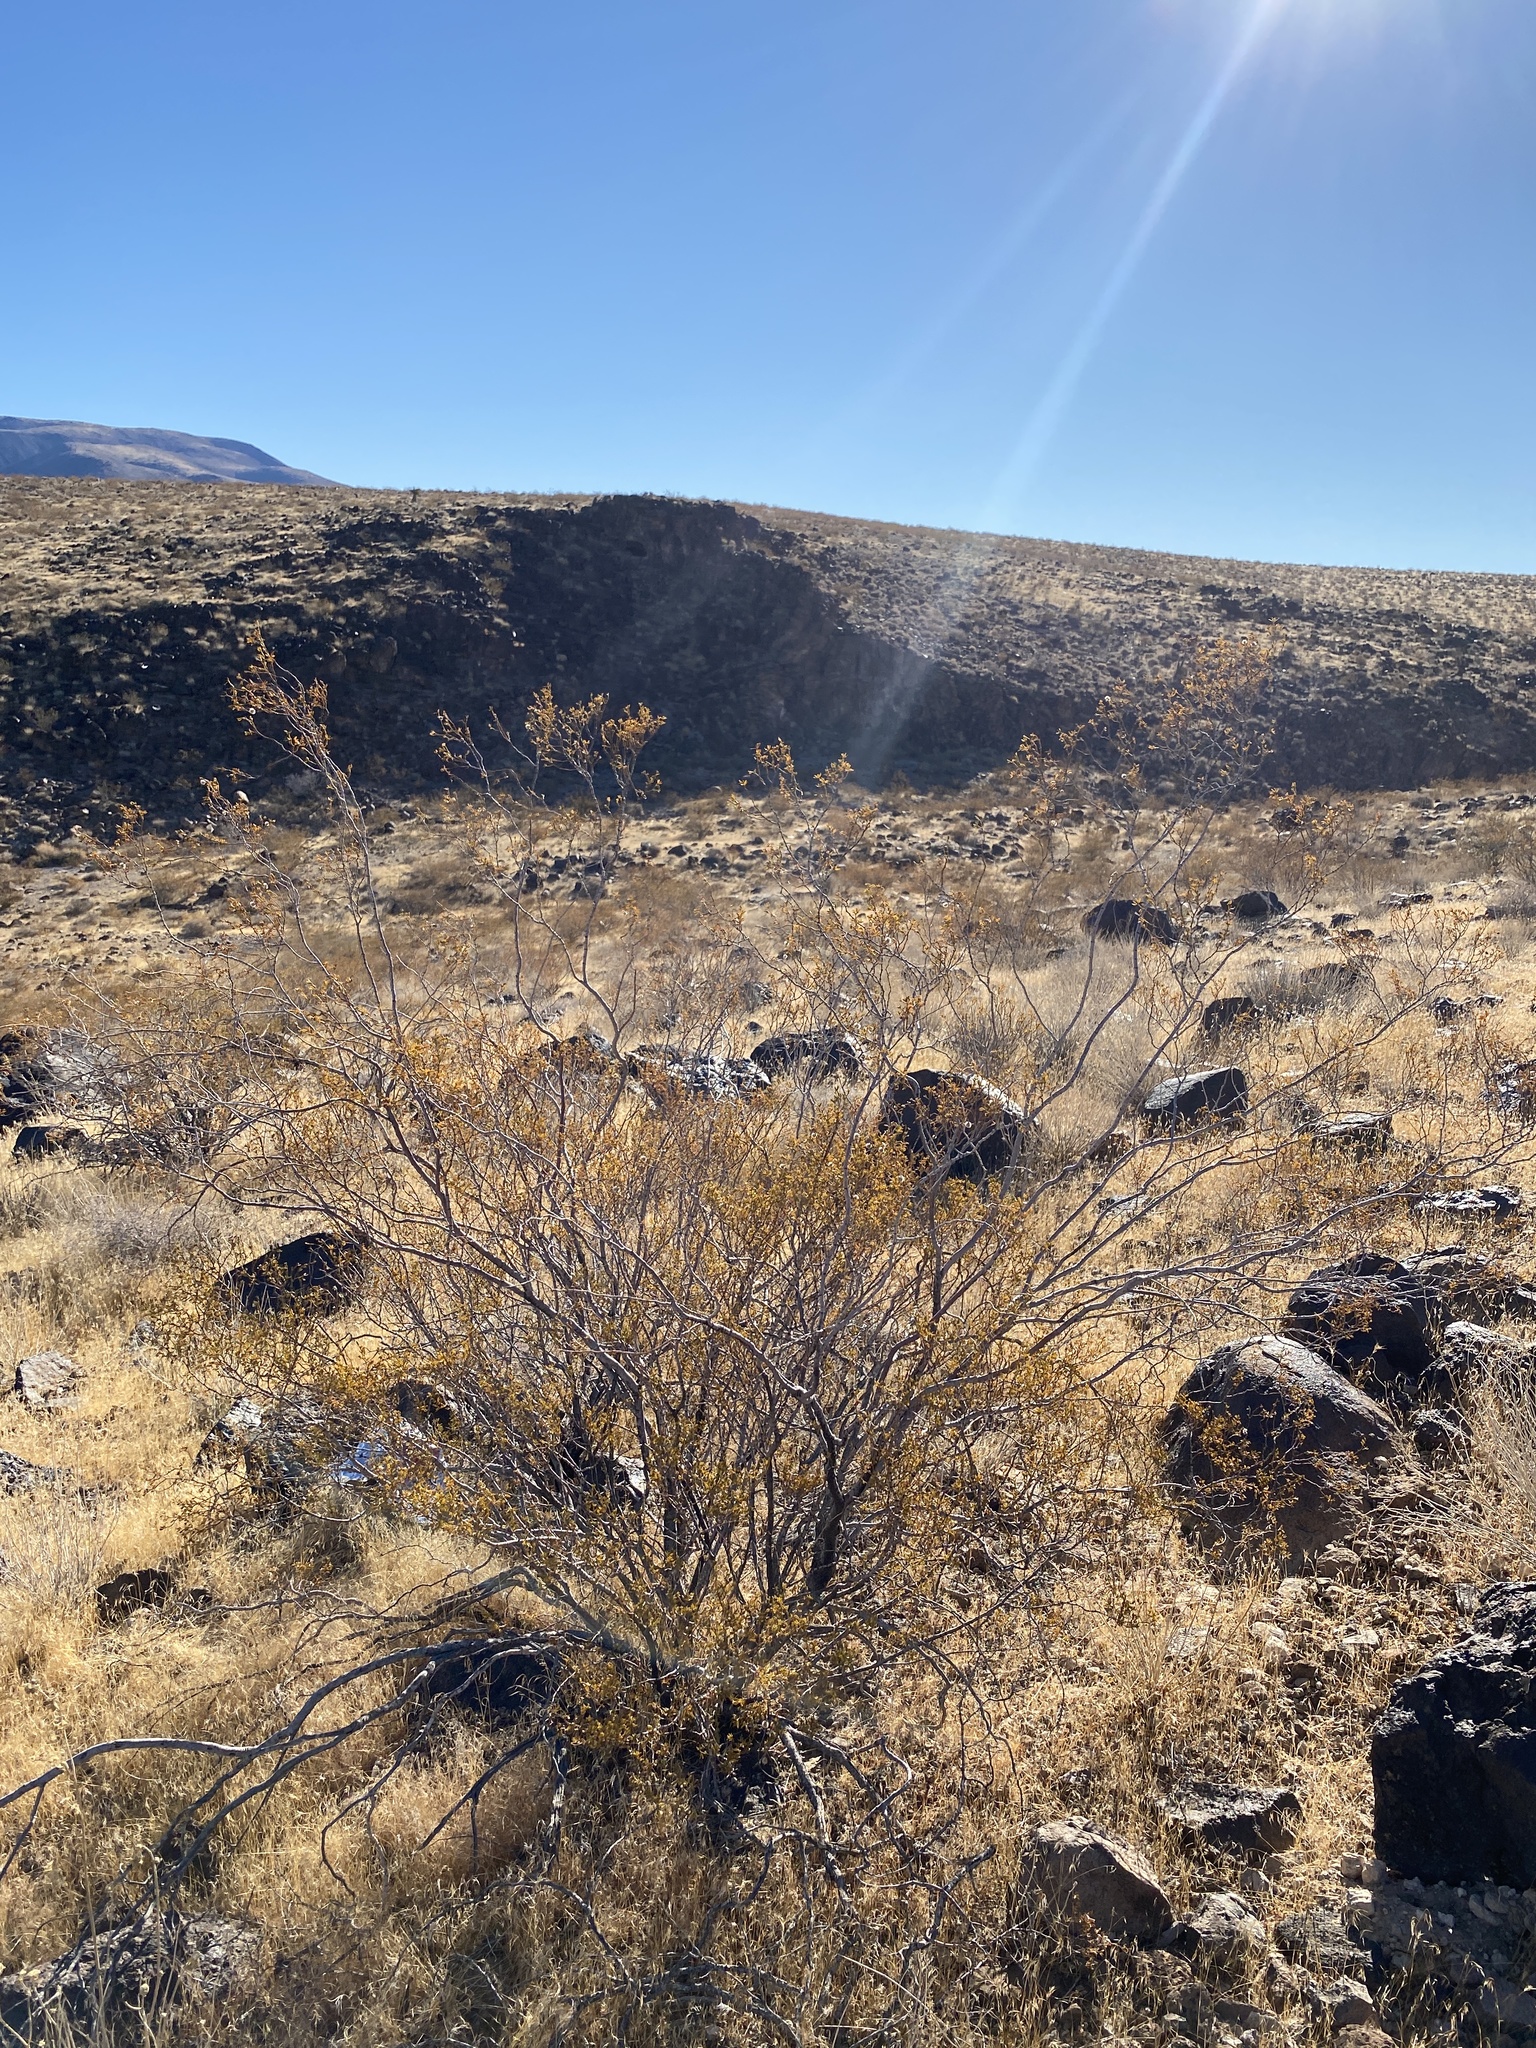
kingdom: Plantae
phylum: Tracheophyta
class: Magnoliopsida
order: Zygophyllales
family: Zygophyllaceae
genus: Larrea
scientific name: Larrea tridentata
